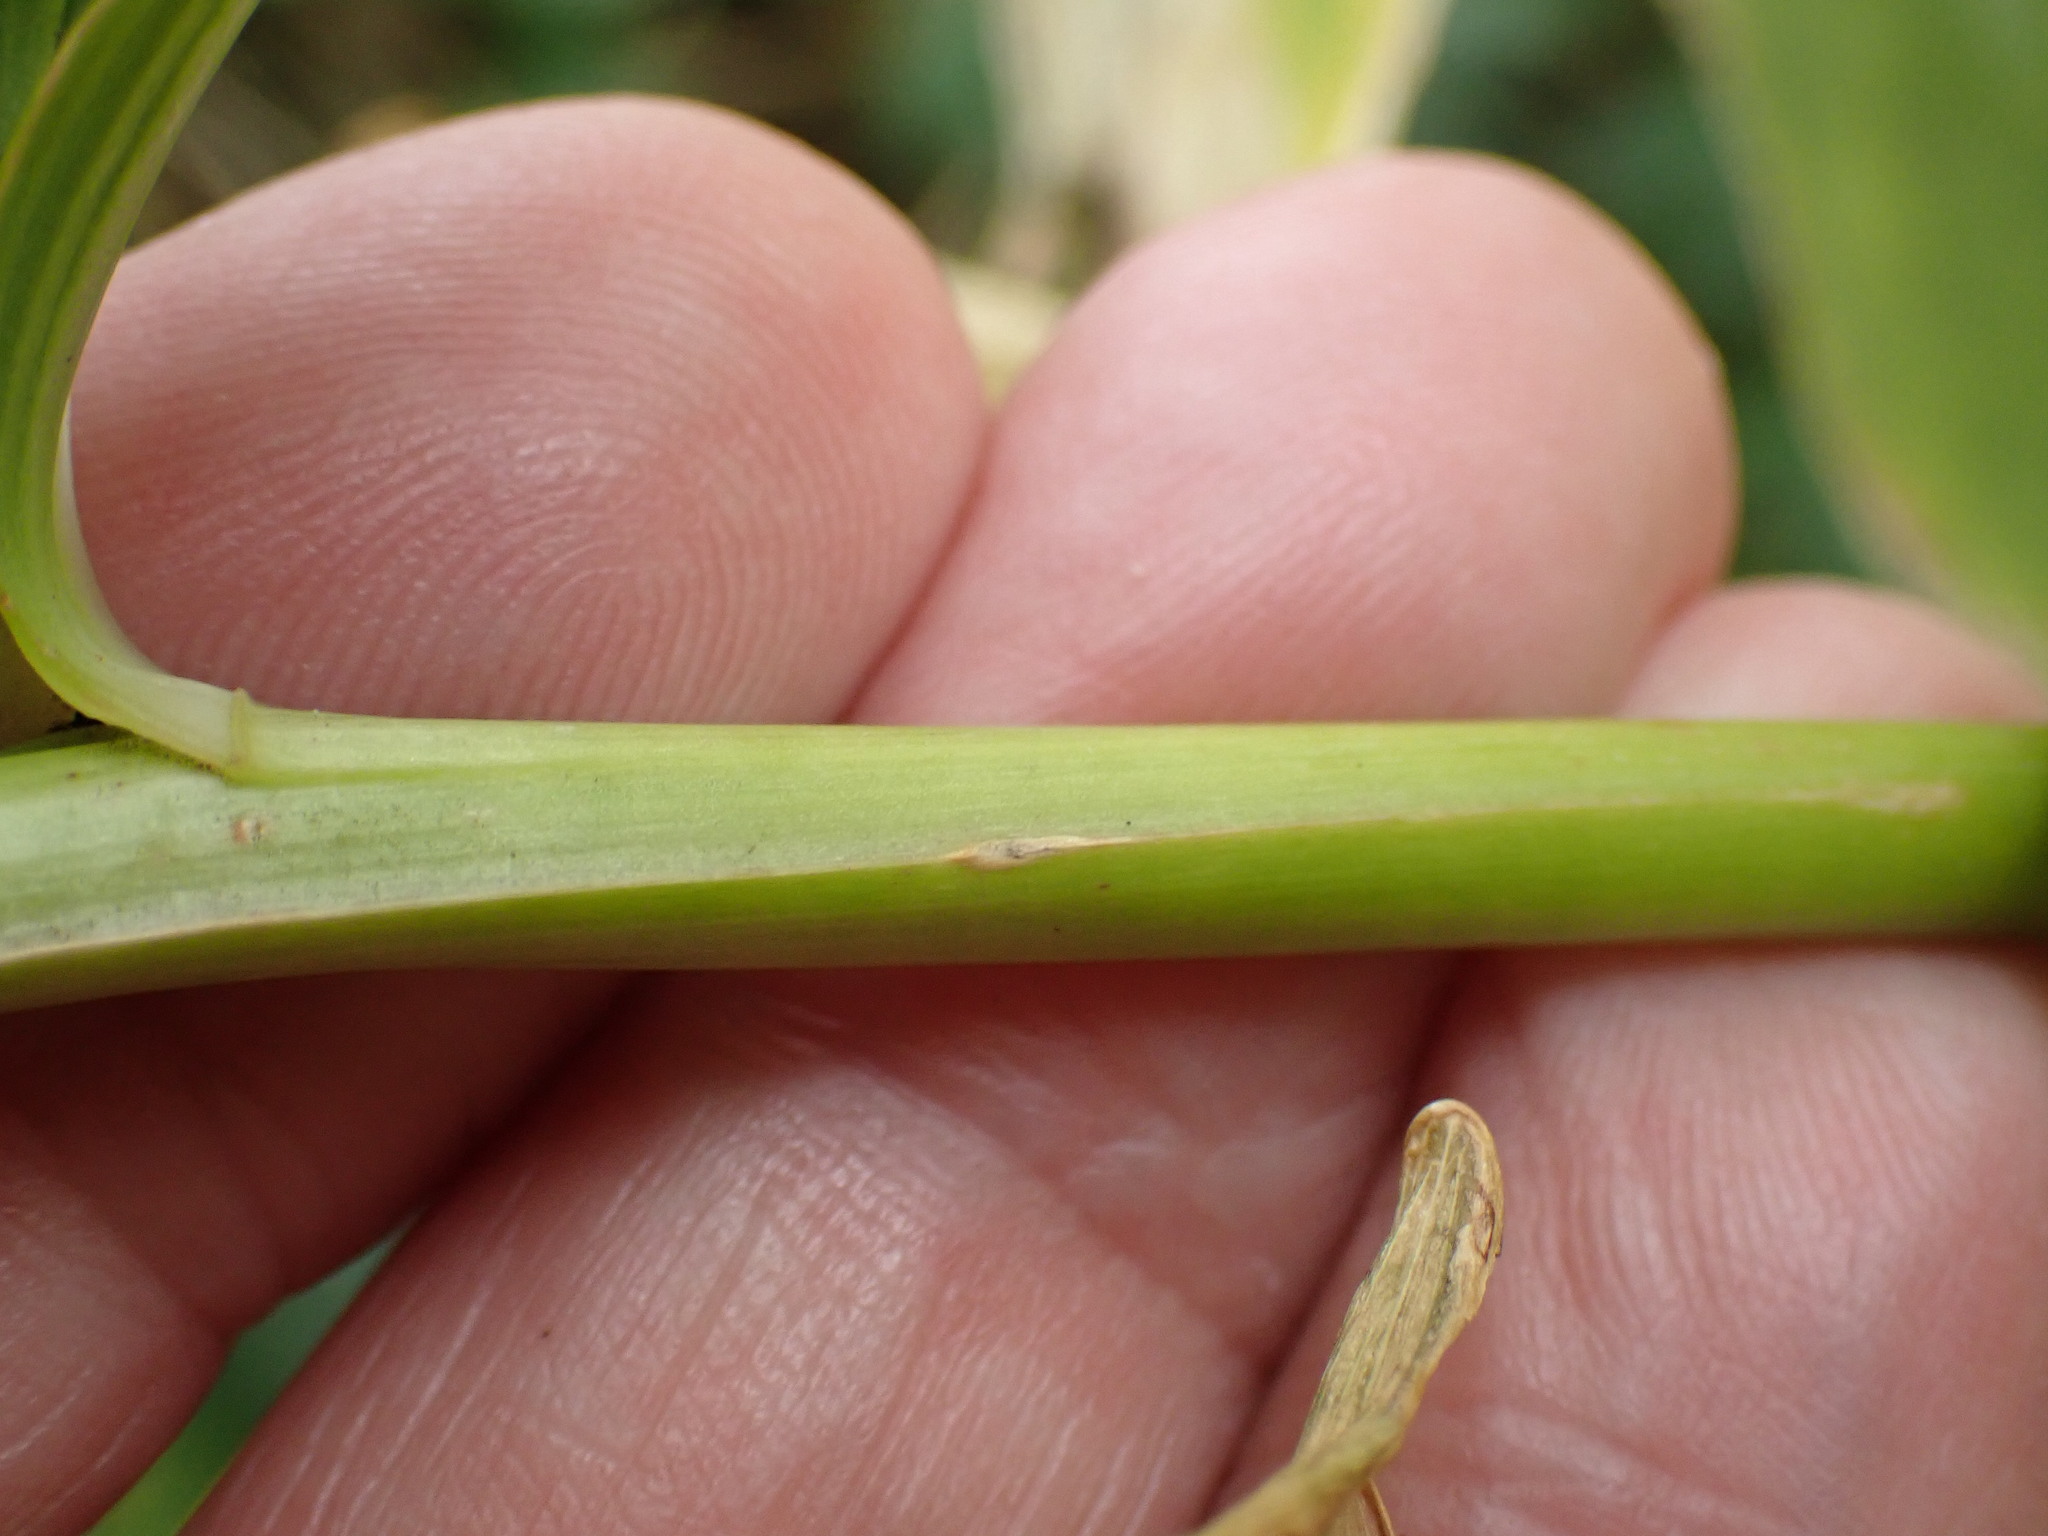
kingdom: Plantae
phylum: Tracheophyta
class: Liliopsida
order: Asparagales
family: Asparagaceae
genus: Polygonatum
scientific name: Polygonatum hybridum
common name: Garden solomon's-seal
